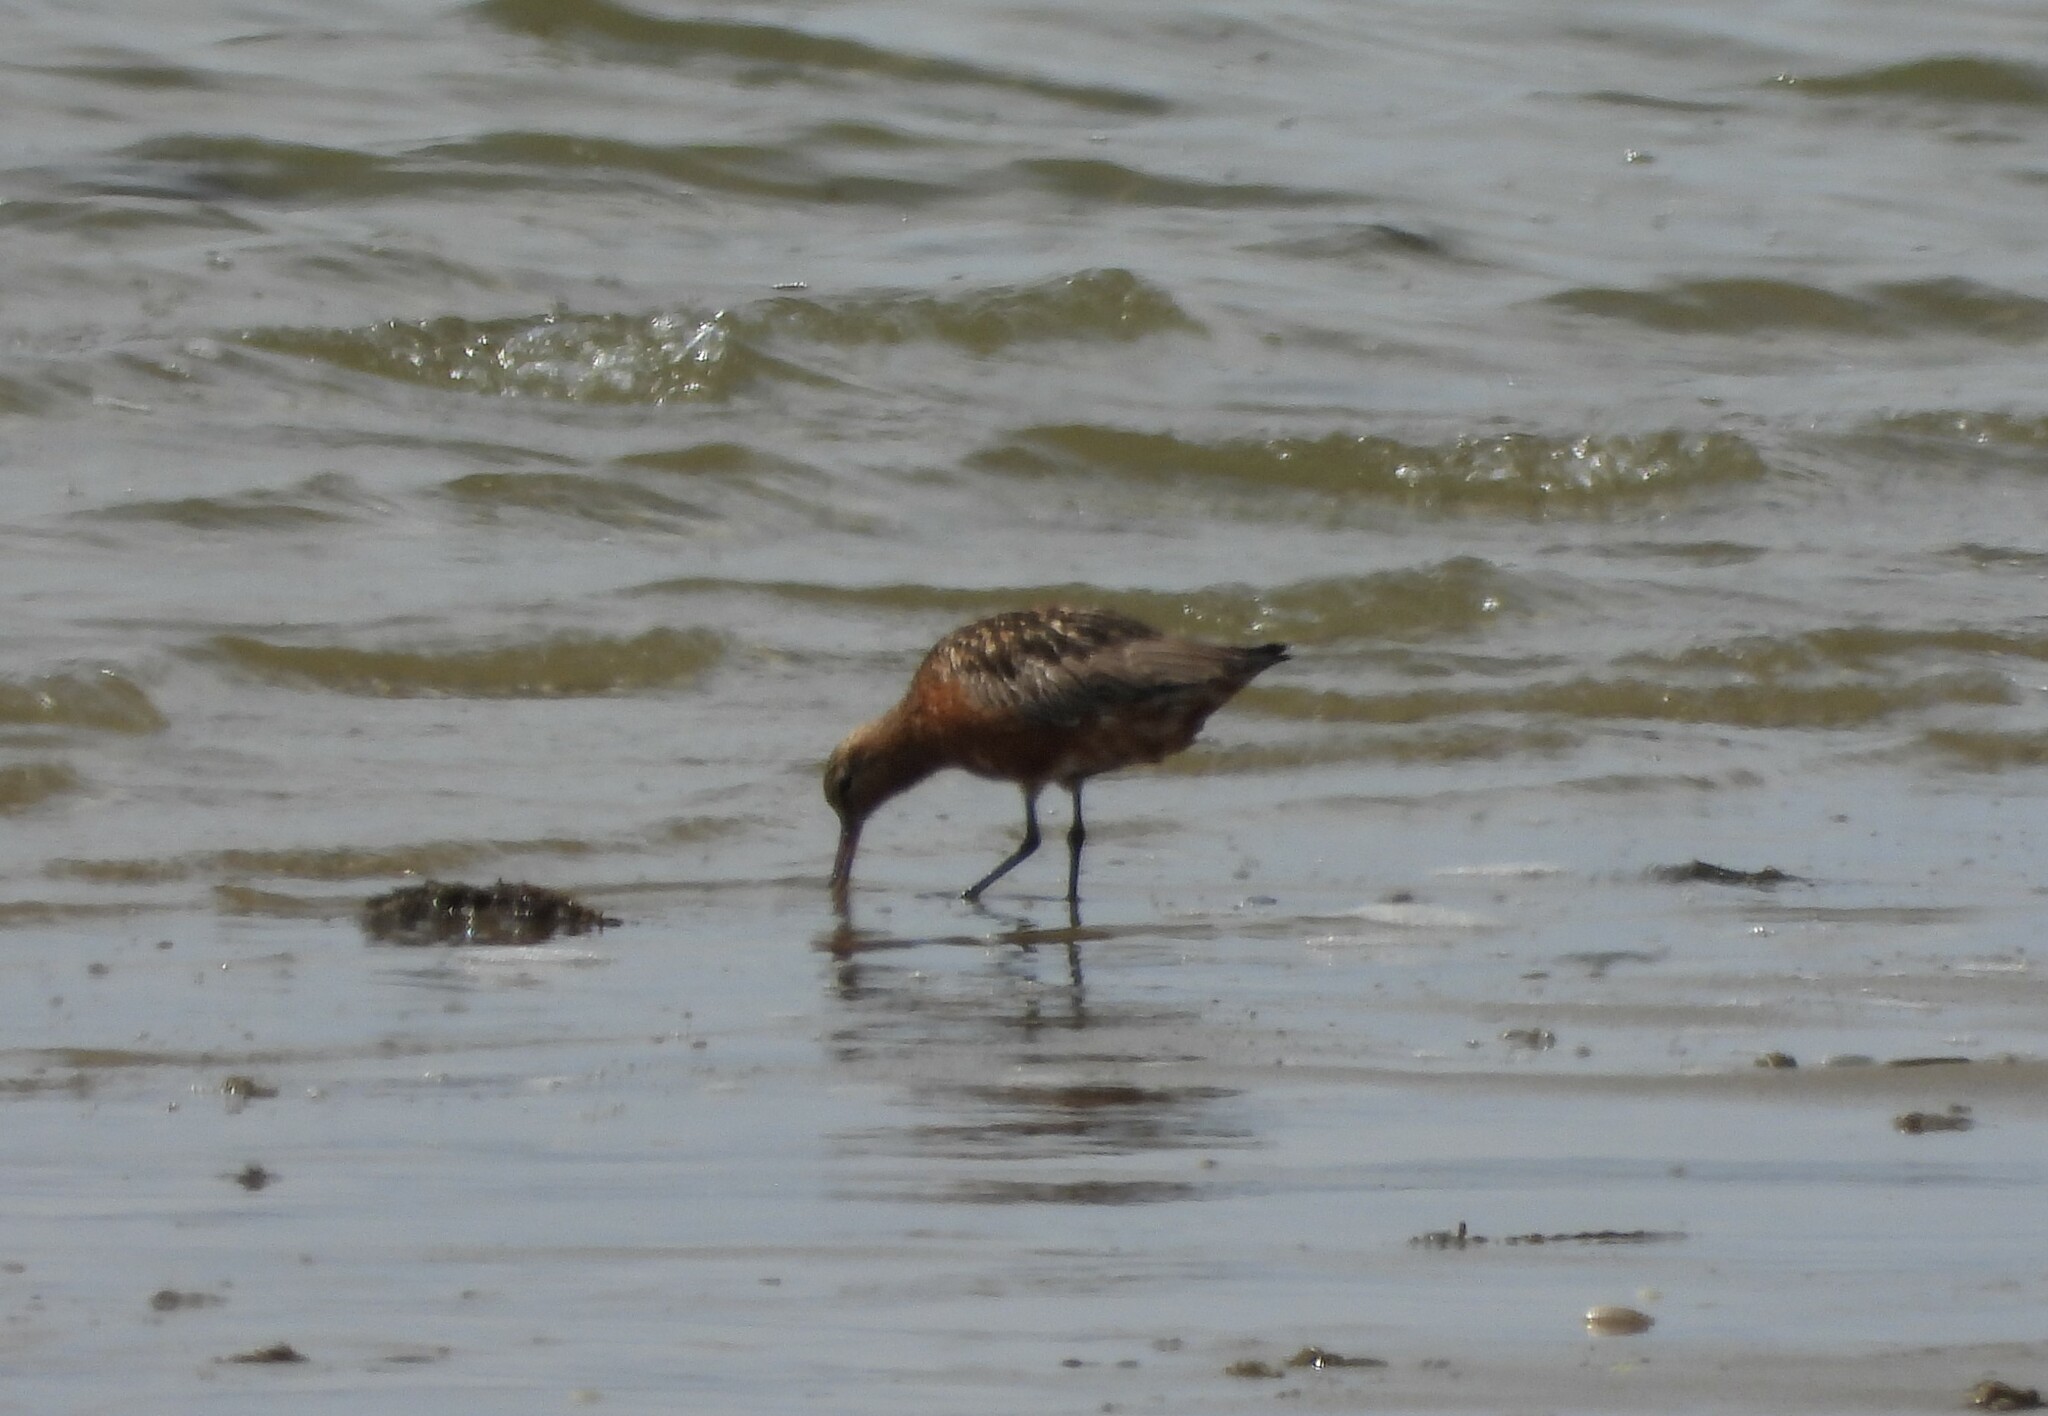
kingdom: Animalia
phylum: Chordata
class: Aves
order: Charadriiformes
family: Scolopacidae
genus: Limosa
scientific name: Limosa lapponica
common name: Bar-tailed godwit
